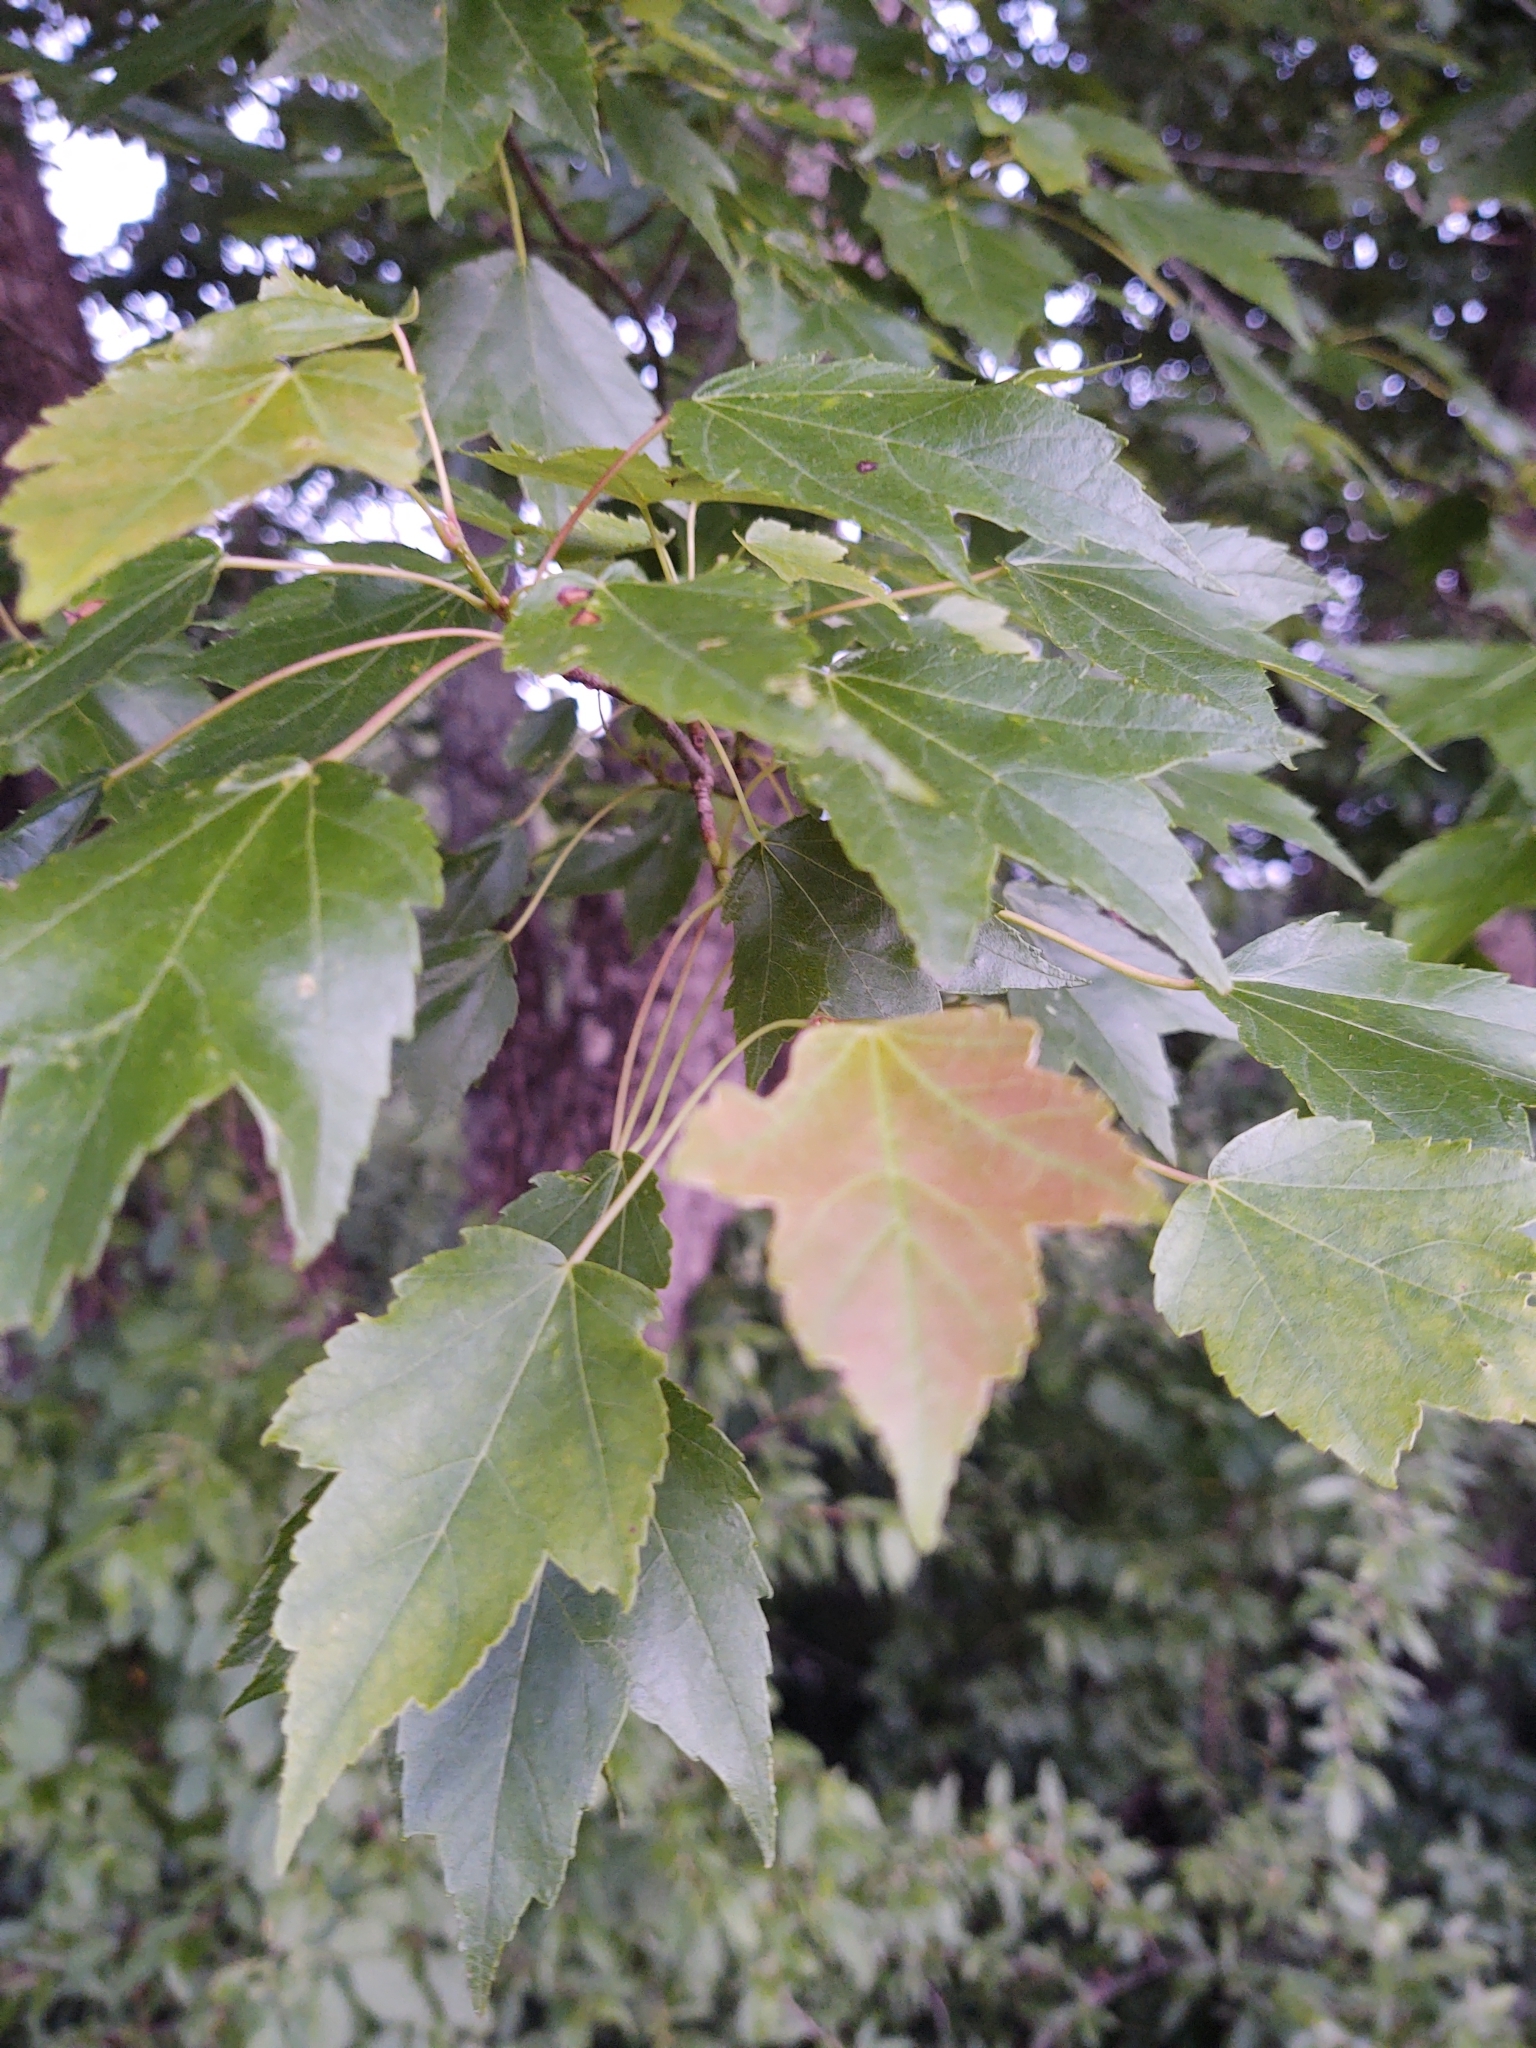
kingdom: Plantae
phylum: Tracheophyta
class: Magnoliopsida
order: Sapindales
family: Sapindaceae
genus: Acer
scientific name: Acer rubrum
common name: Red maple
